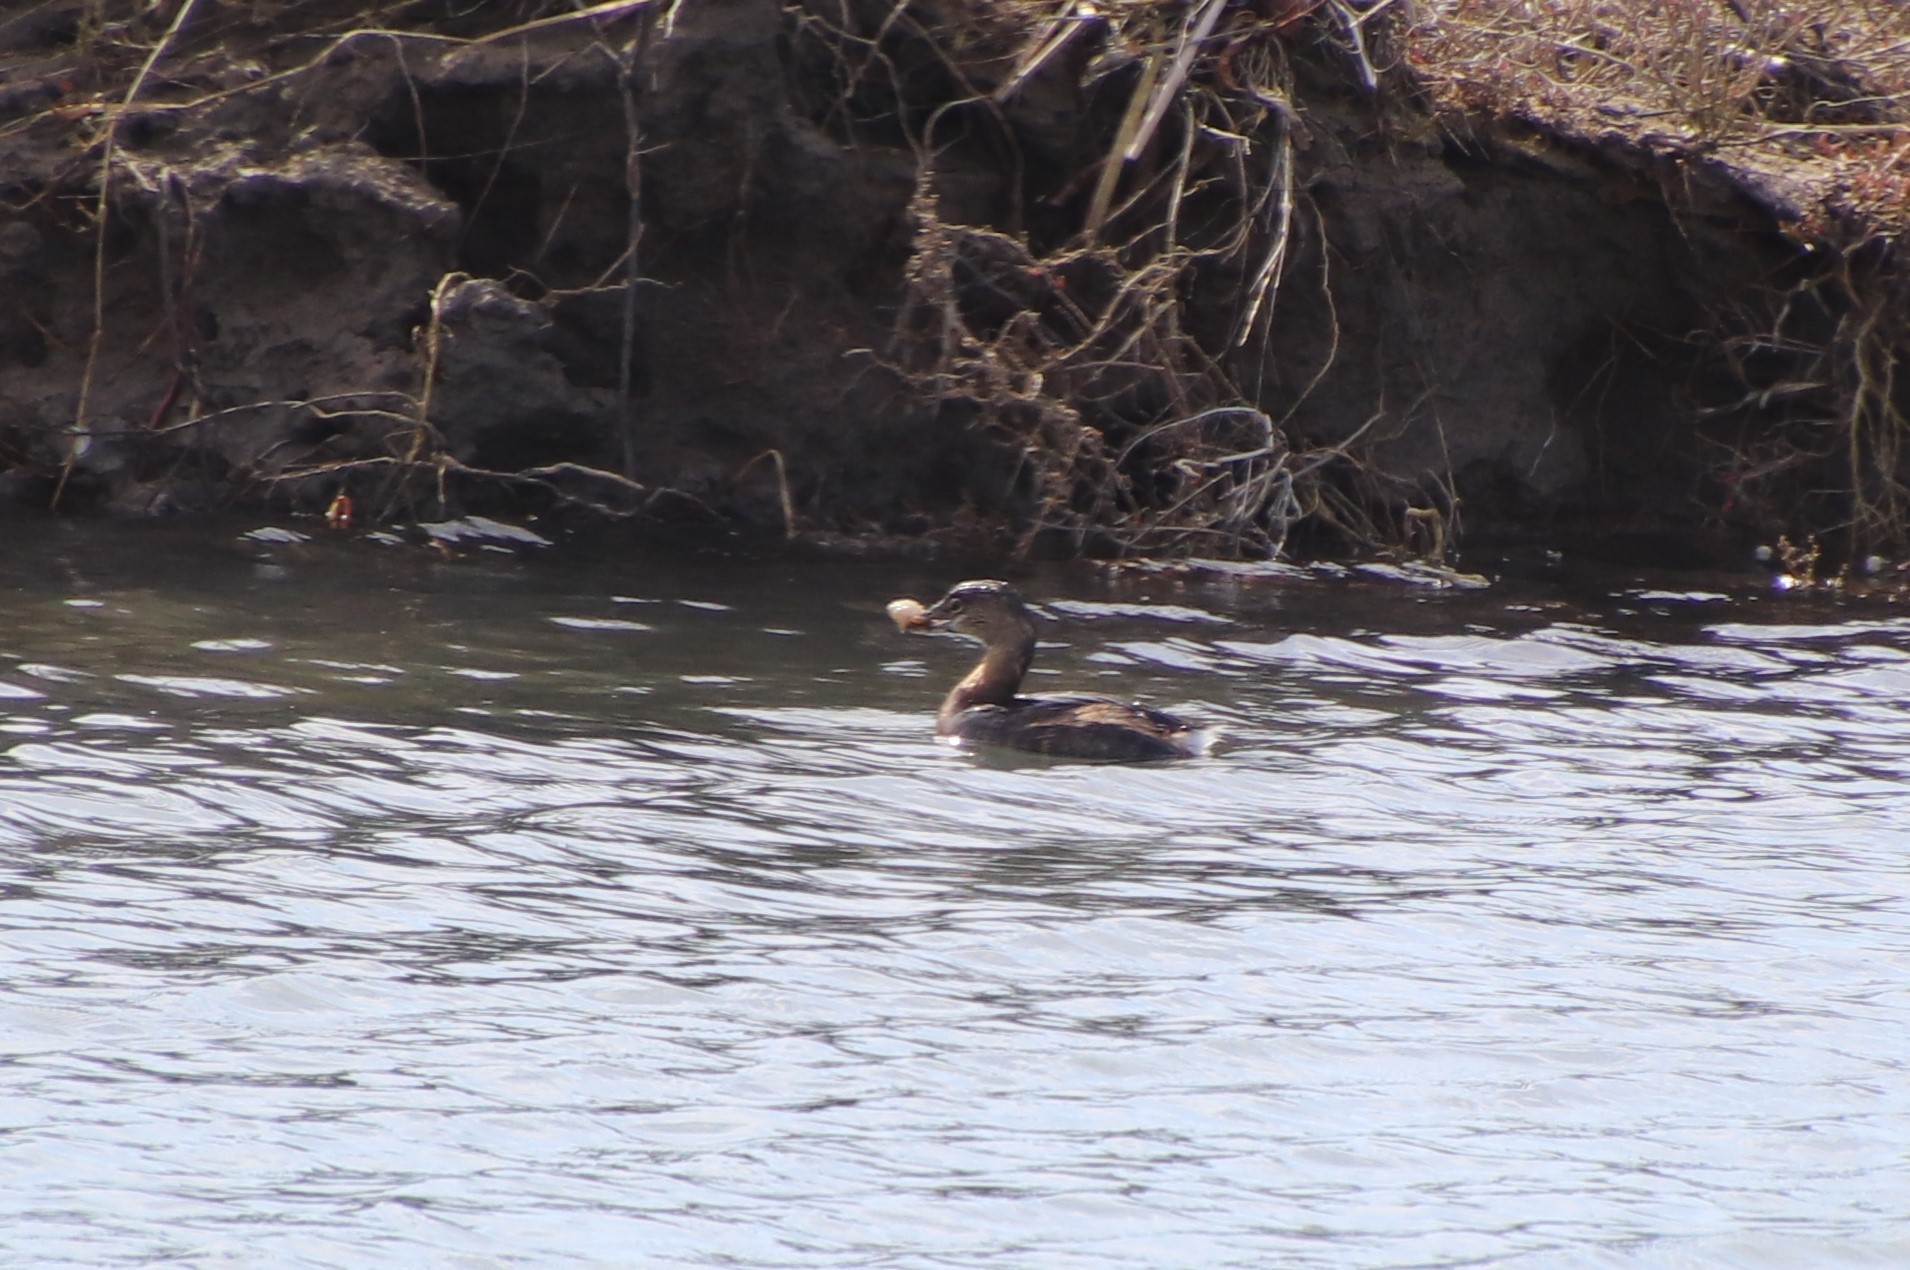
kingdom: Animalia
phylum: Chordata
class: Aves
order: Podicipediformes
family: Podicipedidae
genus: Podilymbus
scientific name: Podilymbus podiceps
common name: Pied-billed grebe
